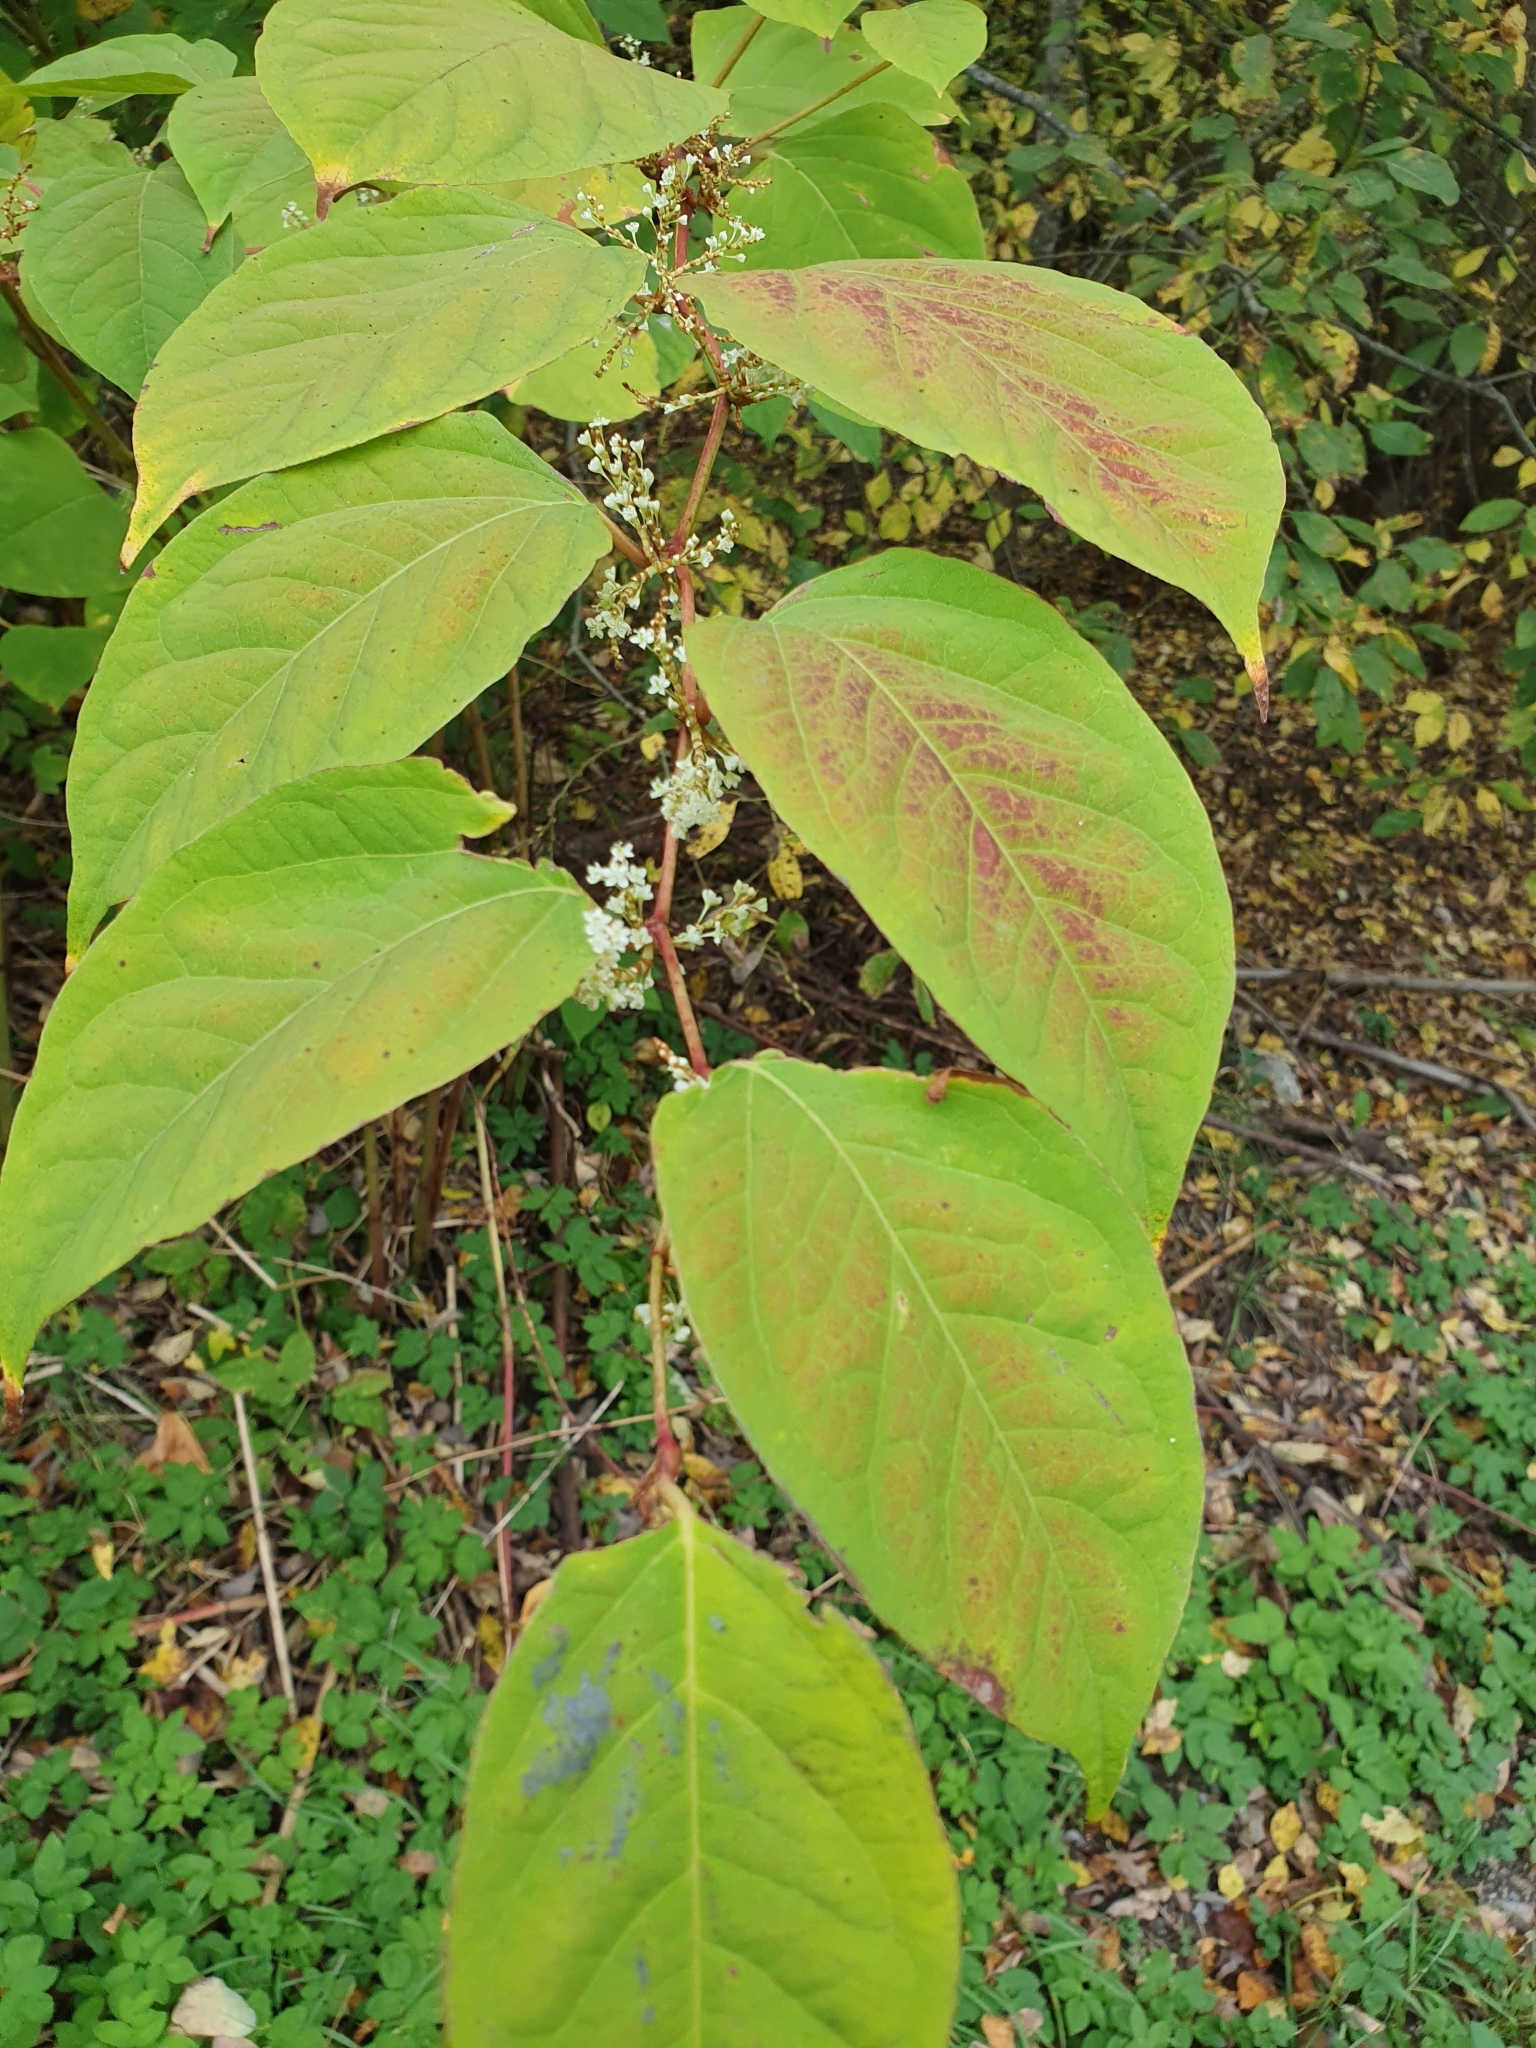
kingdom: Plantae
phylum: Tracheophyta
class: Magnoliopsida
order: Caryophyllales
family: Polygonaceae
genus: Reynoutria
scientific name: Reynoutria japonica
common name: Japanese knotweed
